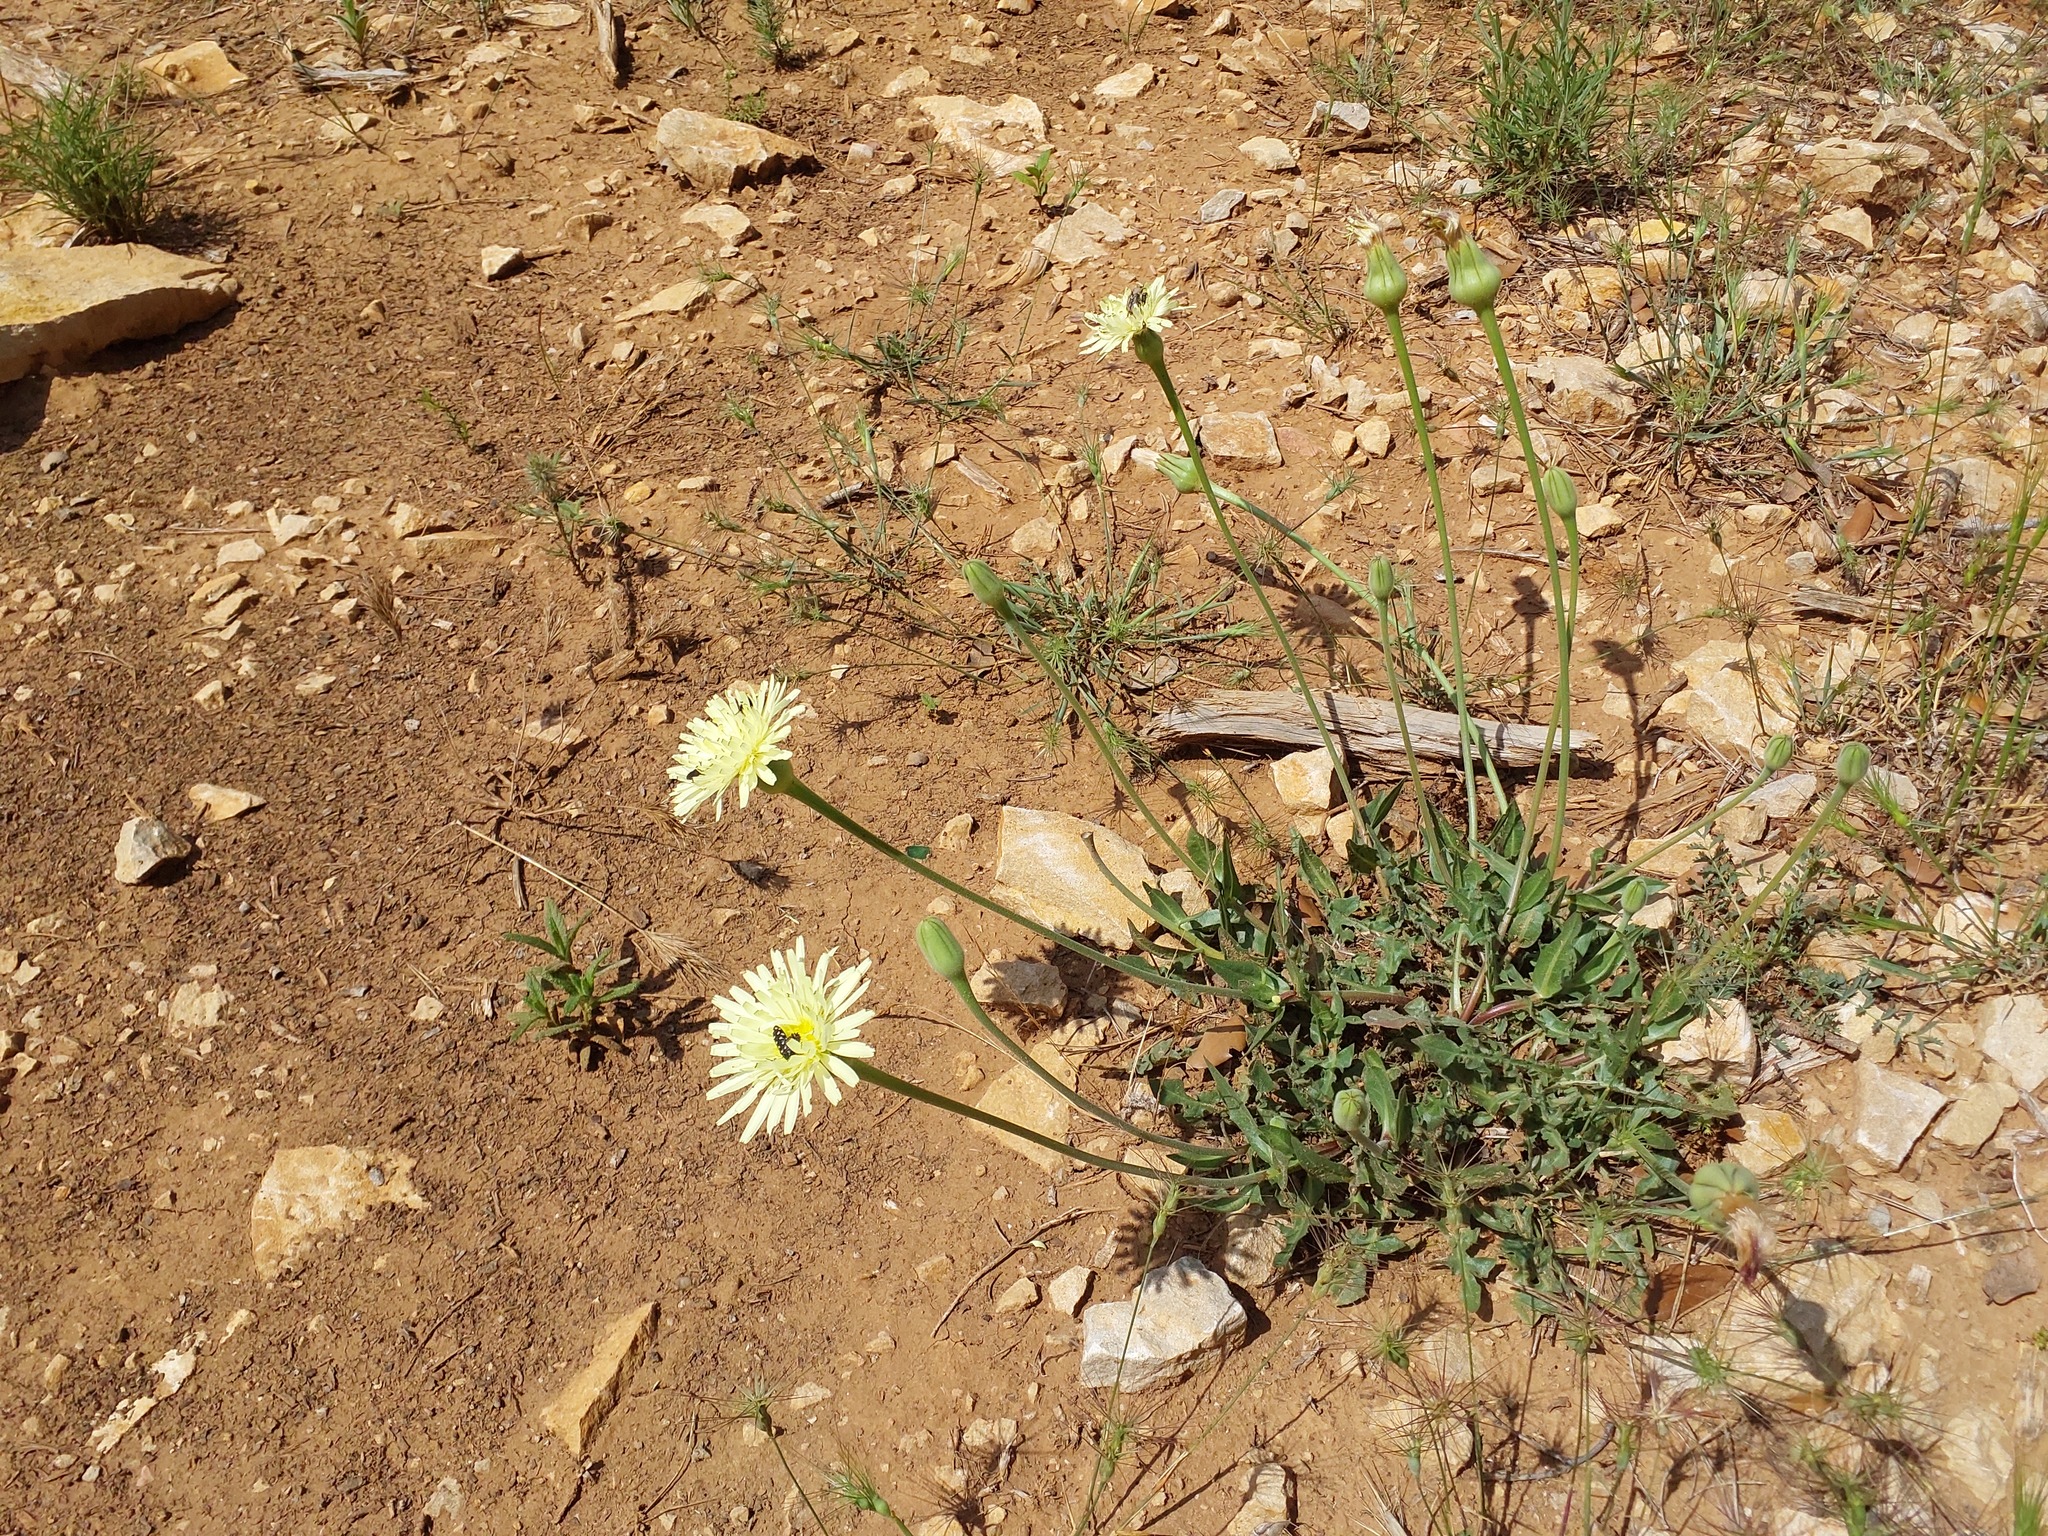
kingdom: Plantae
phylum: Tracheophyta
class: Magnoliopsida
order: Asterales
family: Asteraceae
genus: Urospermum
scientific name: Urospermum dalechampii
